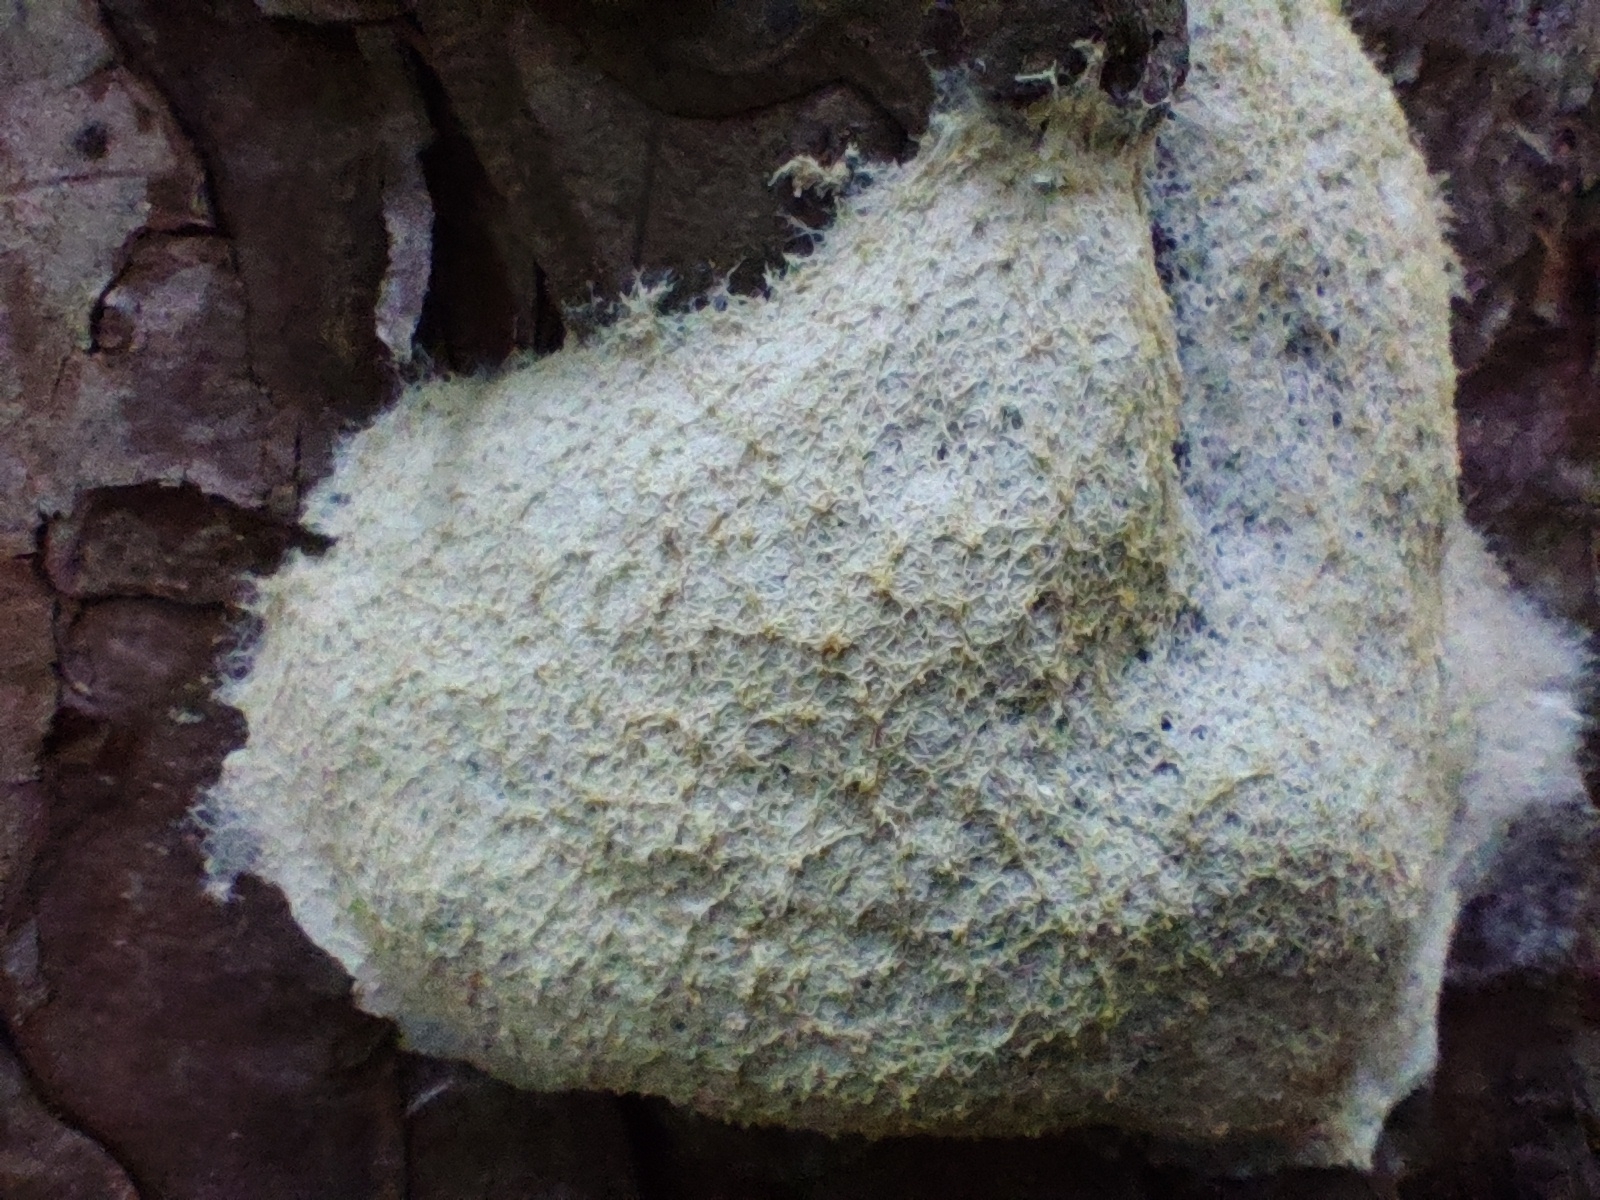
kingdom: Protozoa
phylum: Mycetozoa
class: Myxomycetes
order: Physarales
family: Physaraceae
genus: Fuligo
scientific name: Fuligo septica
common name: Dog vomit slime mold
